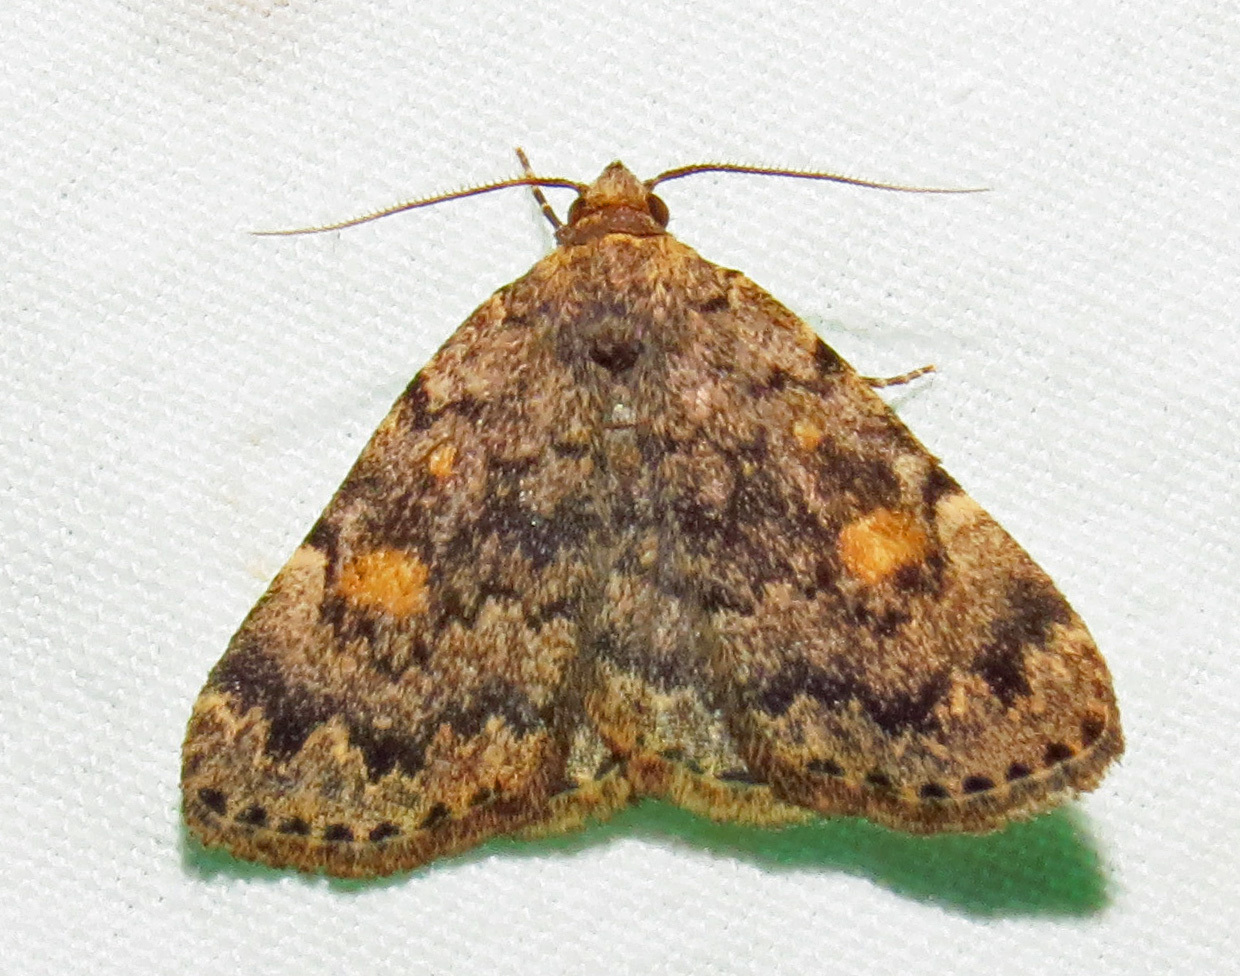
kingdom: Animalia
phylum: Arthropoda
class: Insecta
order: Lepidoptera
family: Erebidae
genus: Idia
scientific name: Idia aemula
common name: Common idia moth
